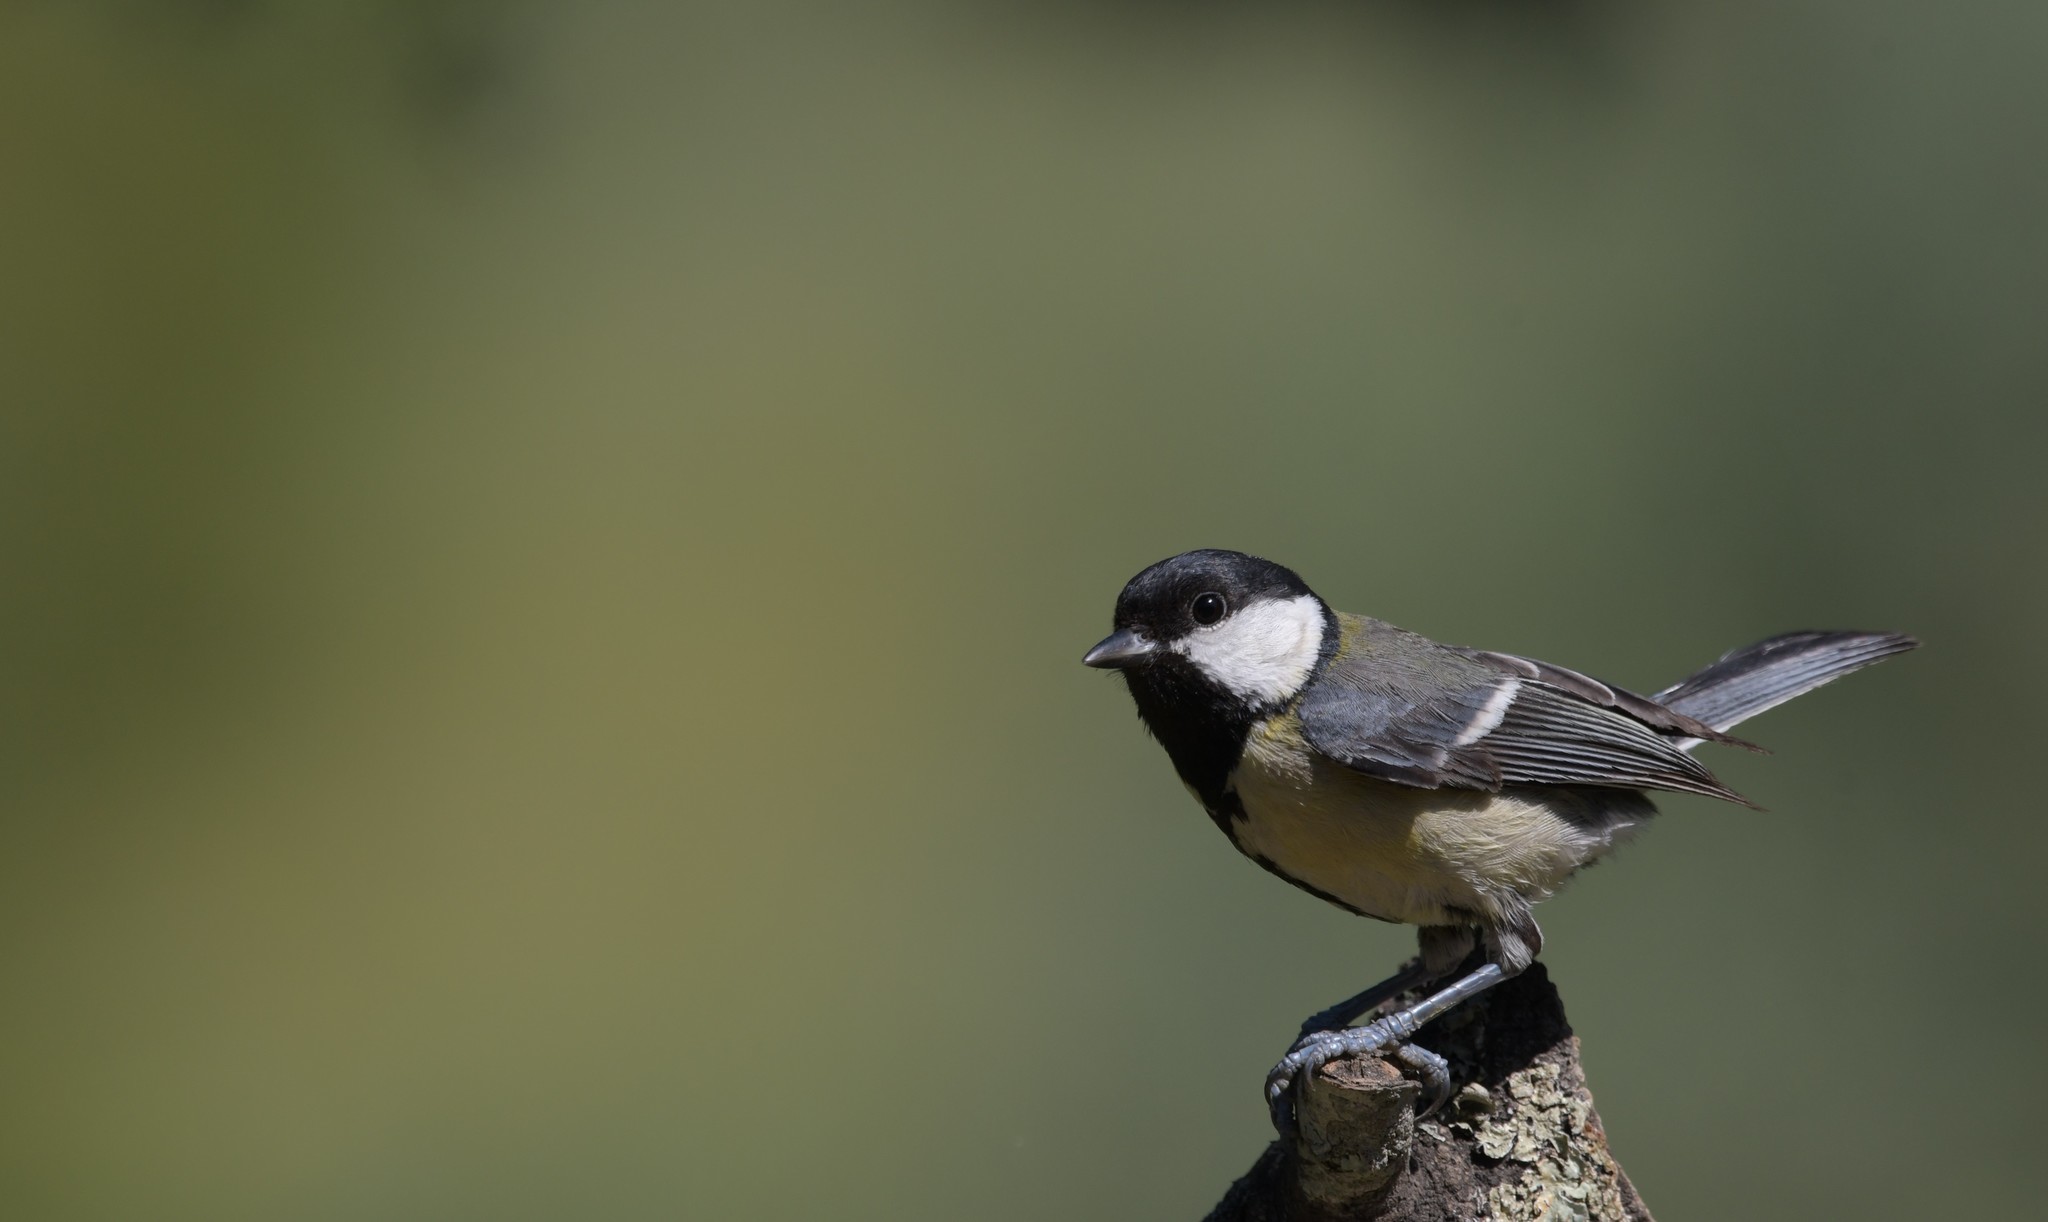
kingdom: Animalia
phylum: Chordata
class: Aves
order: Passeriformes
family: Paridae
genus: Parus
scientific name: Parus major
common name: Great tit
